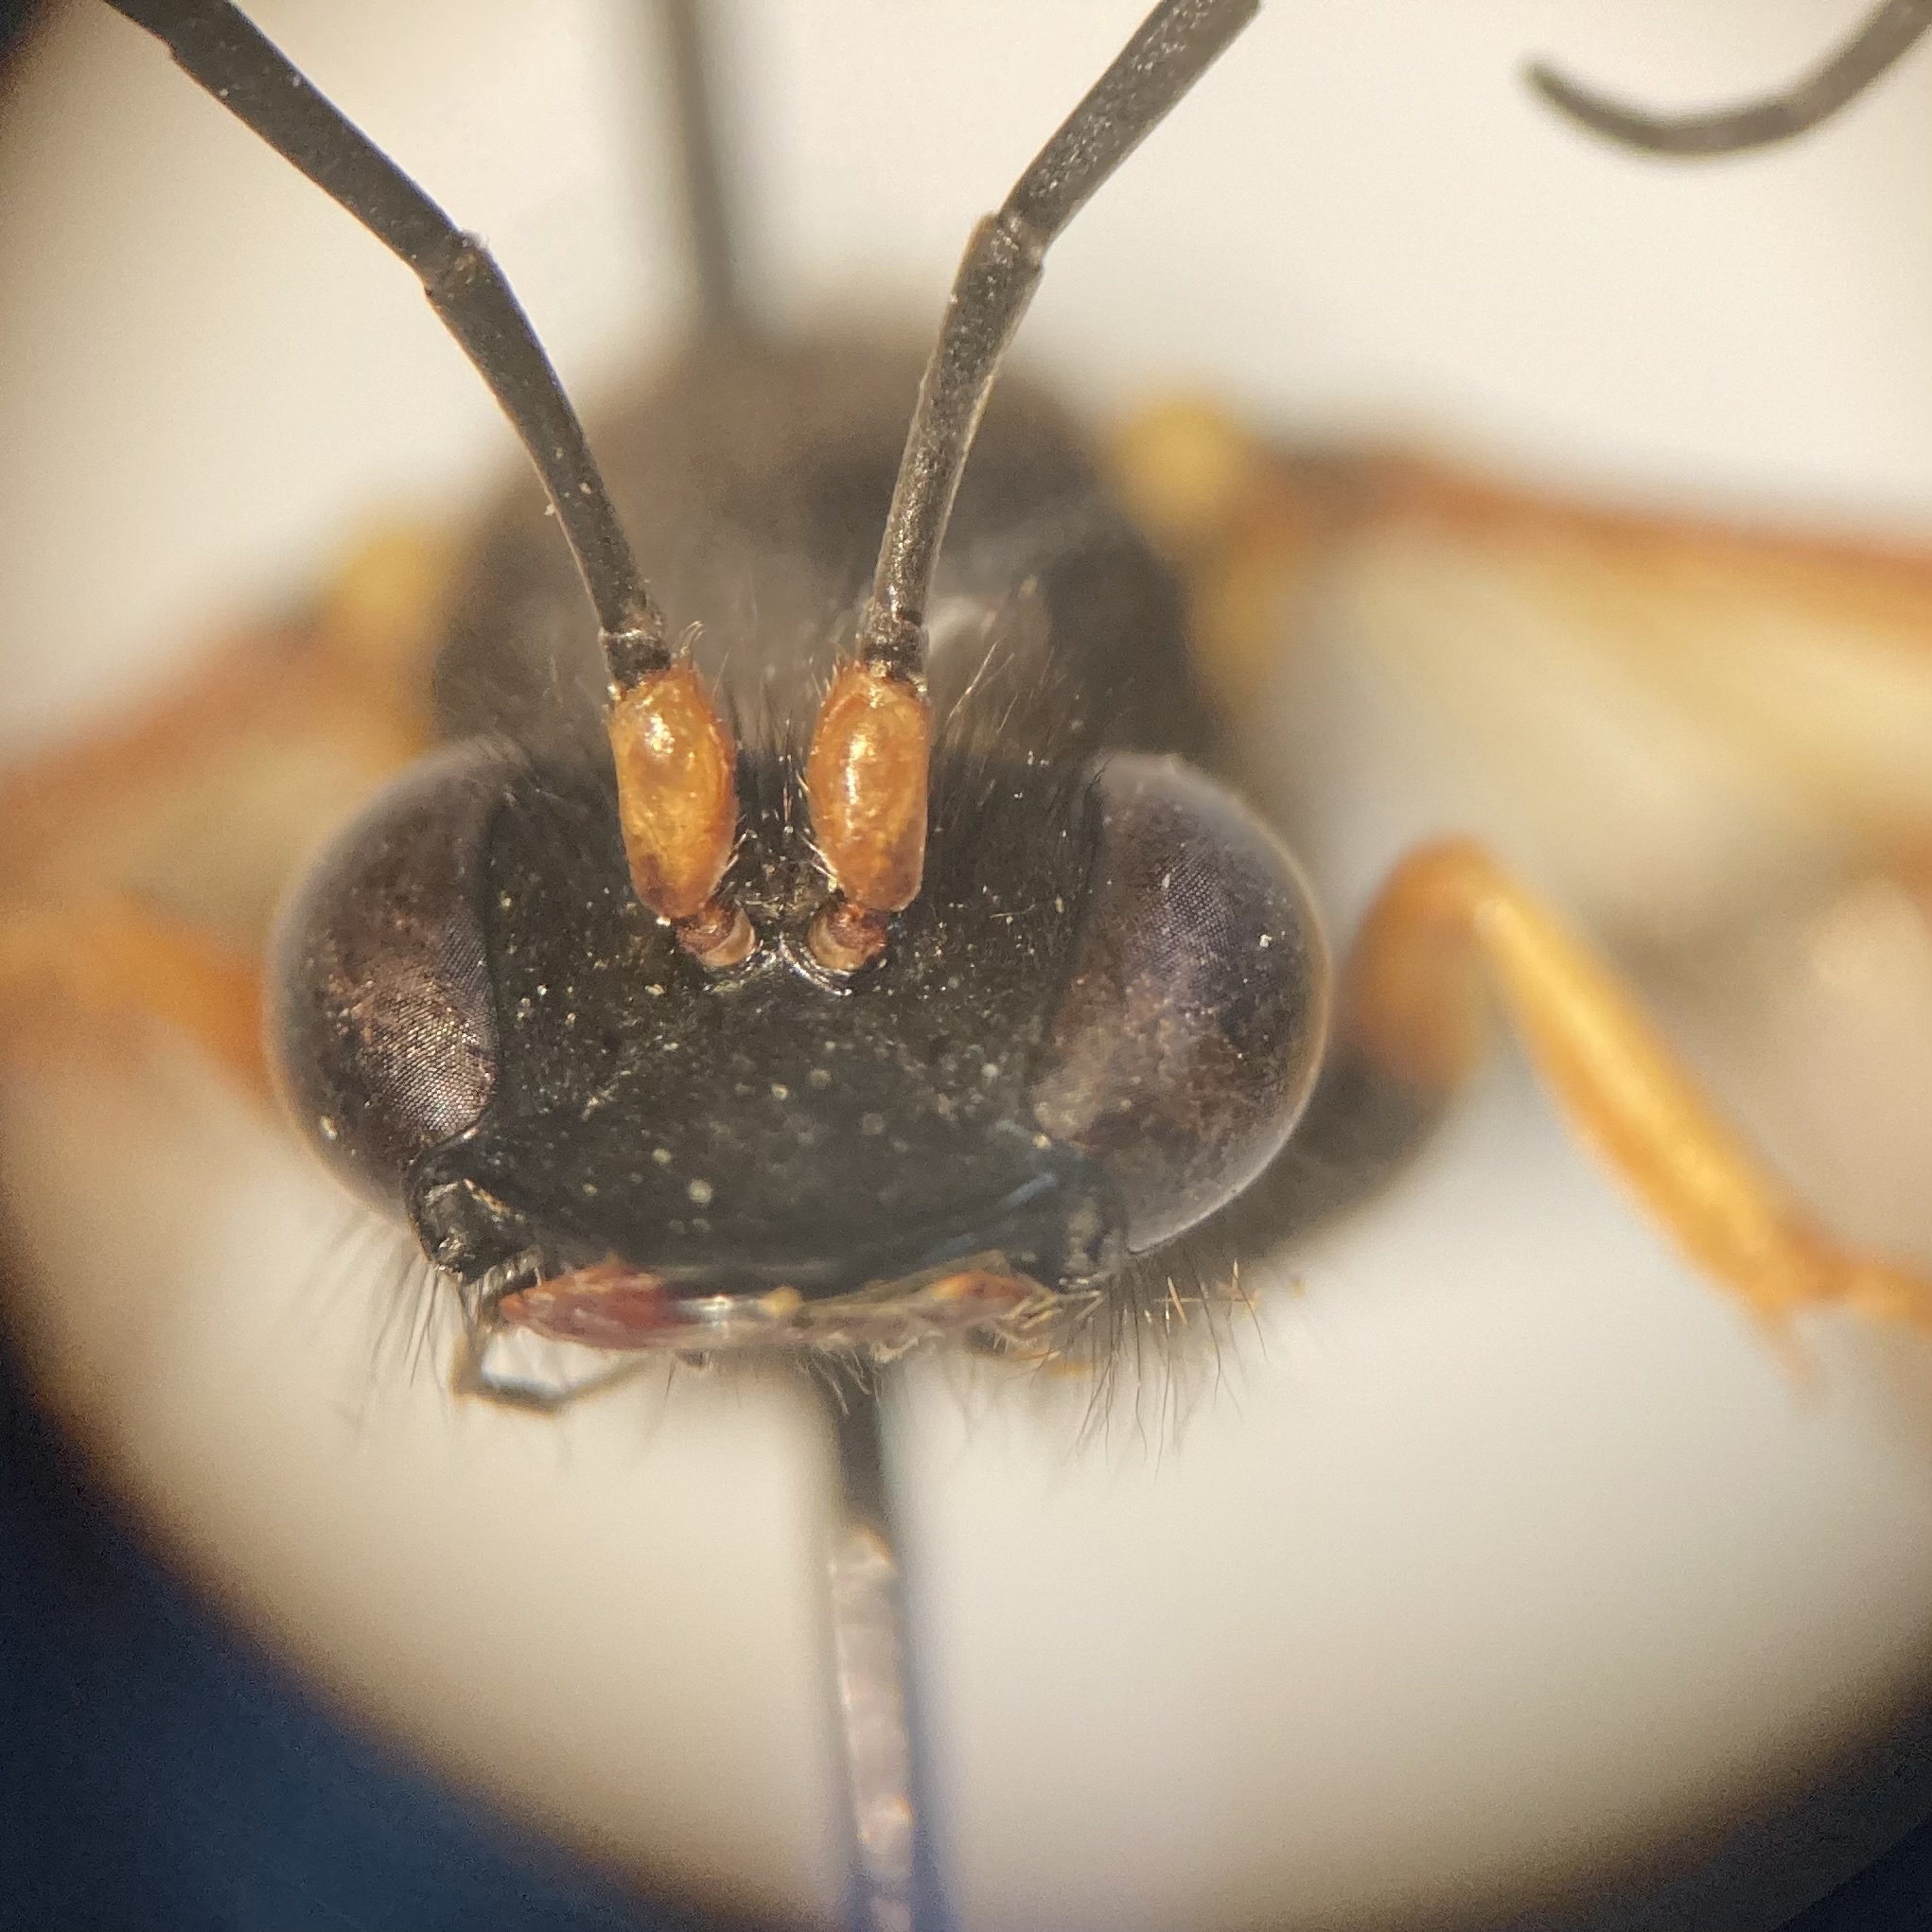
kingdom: Animalia
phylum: Arthropoda
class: Insecta
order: Hymenoptera
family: Sphecidae
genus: Sceliphron
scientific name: Sceliphron caementarium
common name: Mud dauber
